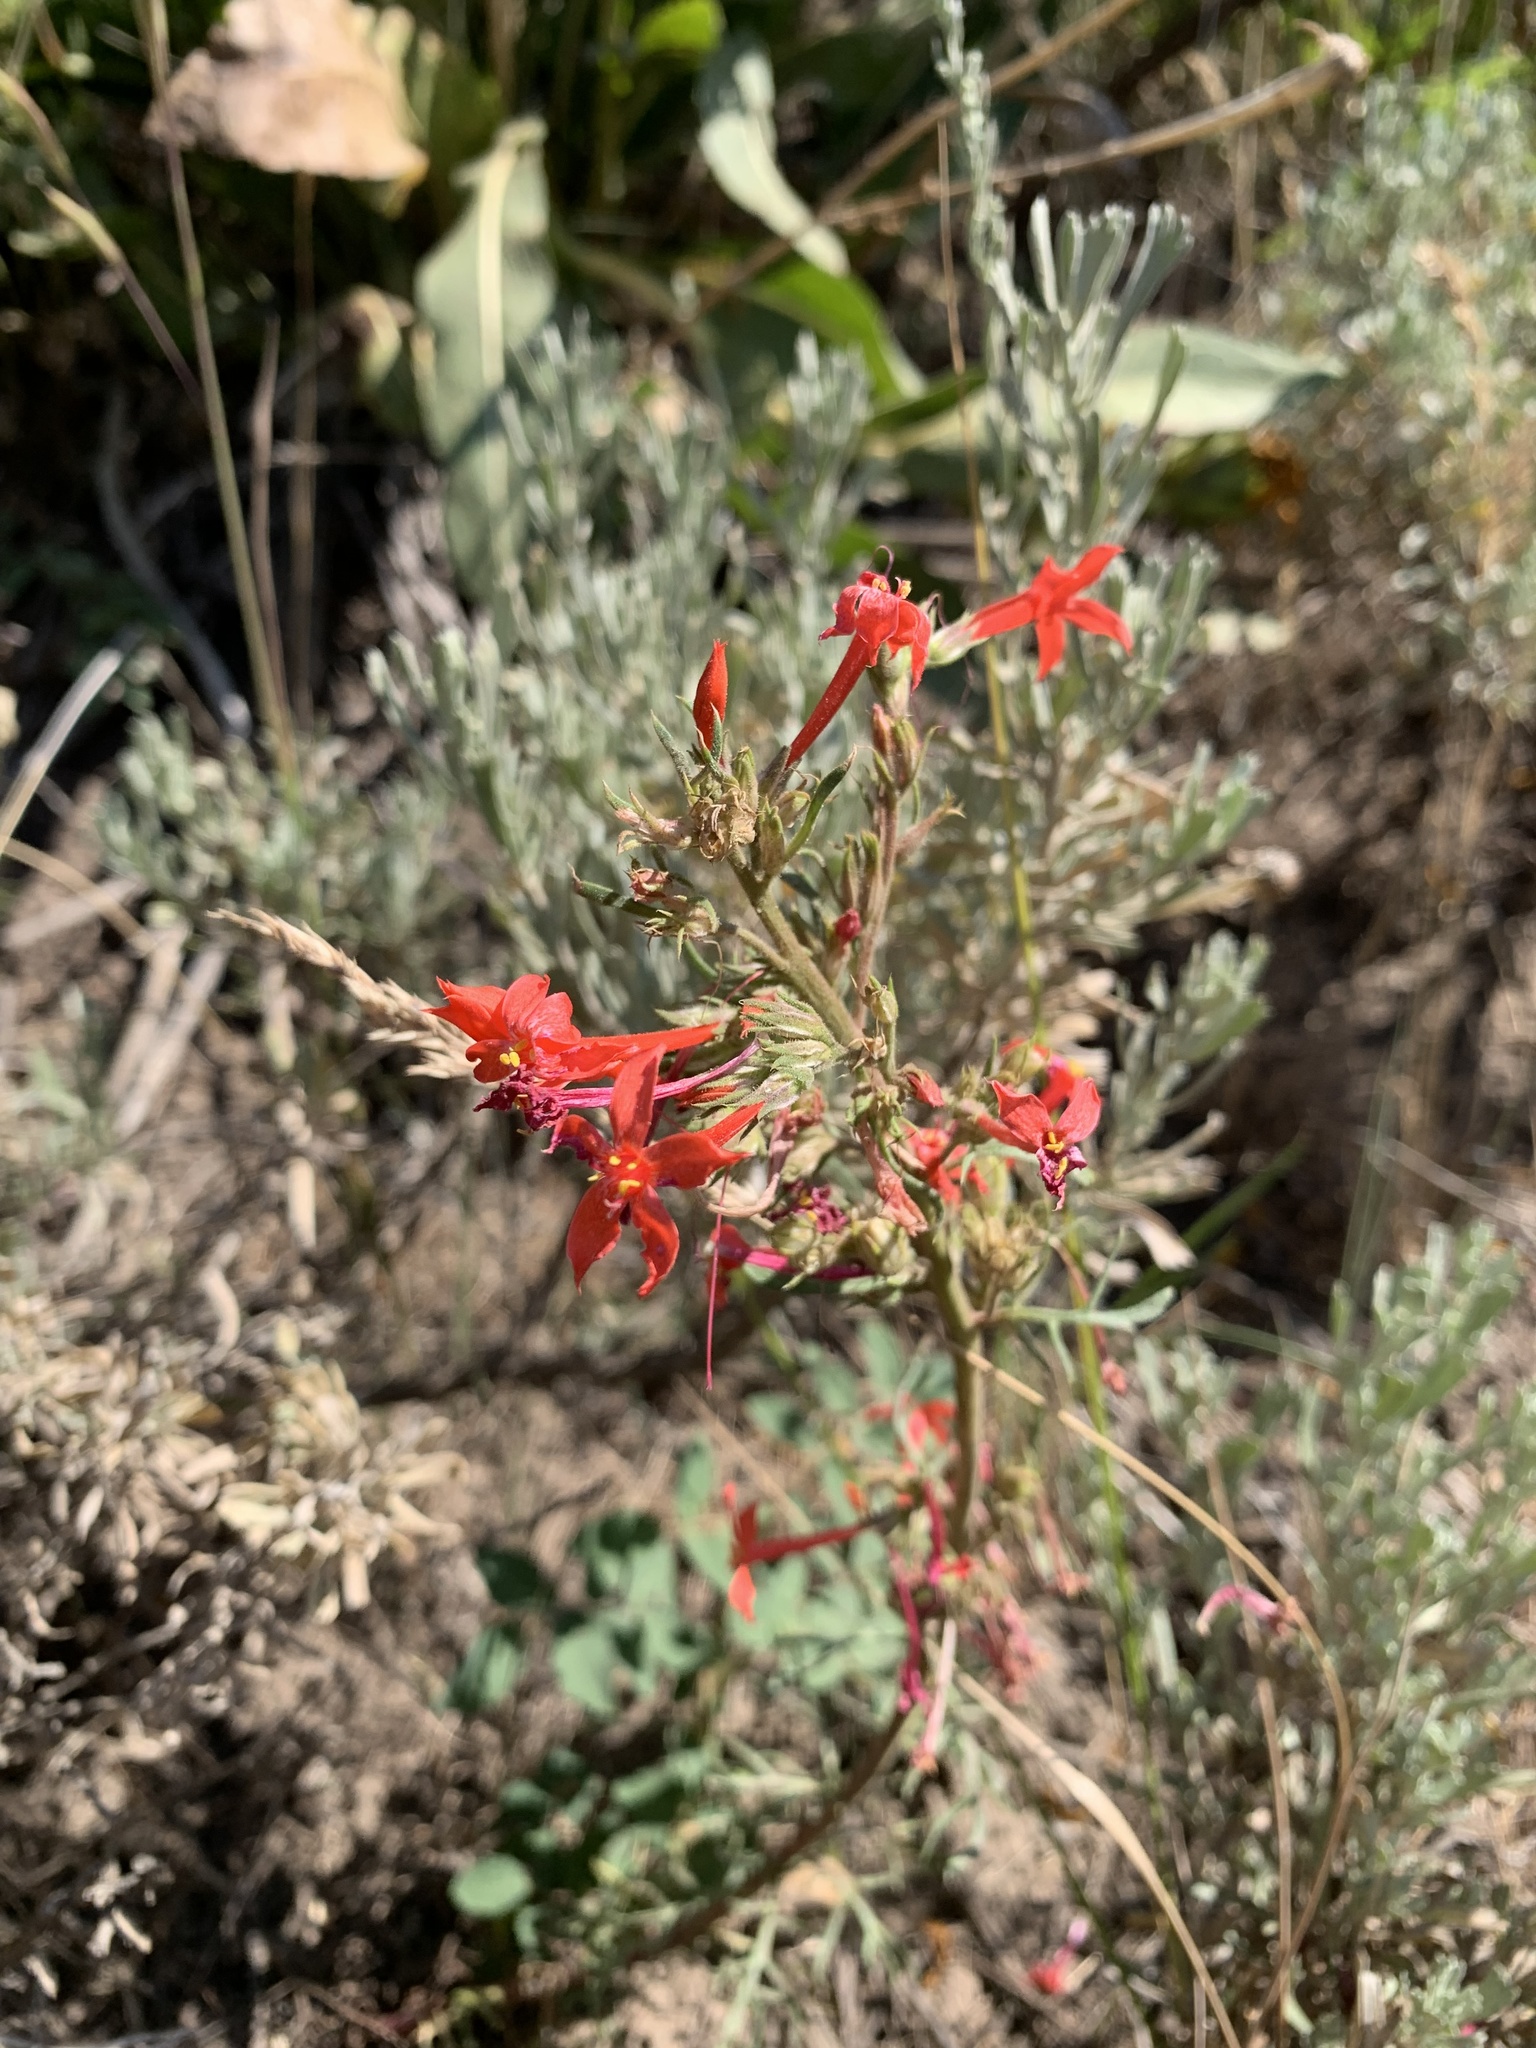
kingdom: Plantae
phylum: Tracheophyta
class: Magnoliopsida
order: Ericales
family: Polemoniaceae
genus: Ipomopsis
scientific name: Ipomopsis aggregata
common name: Scarlet gilia
